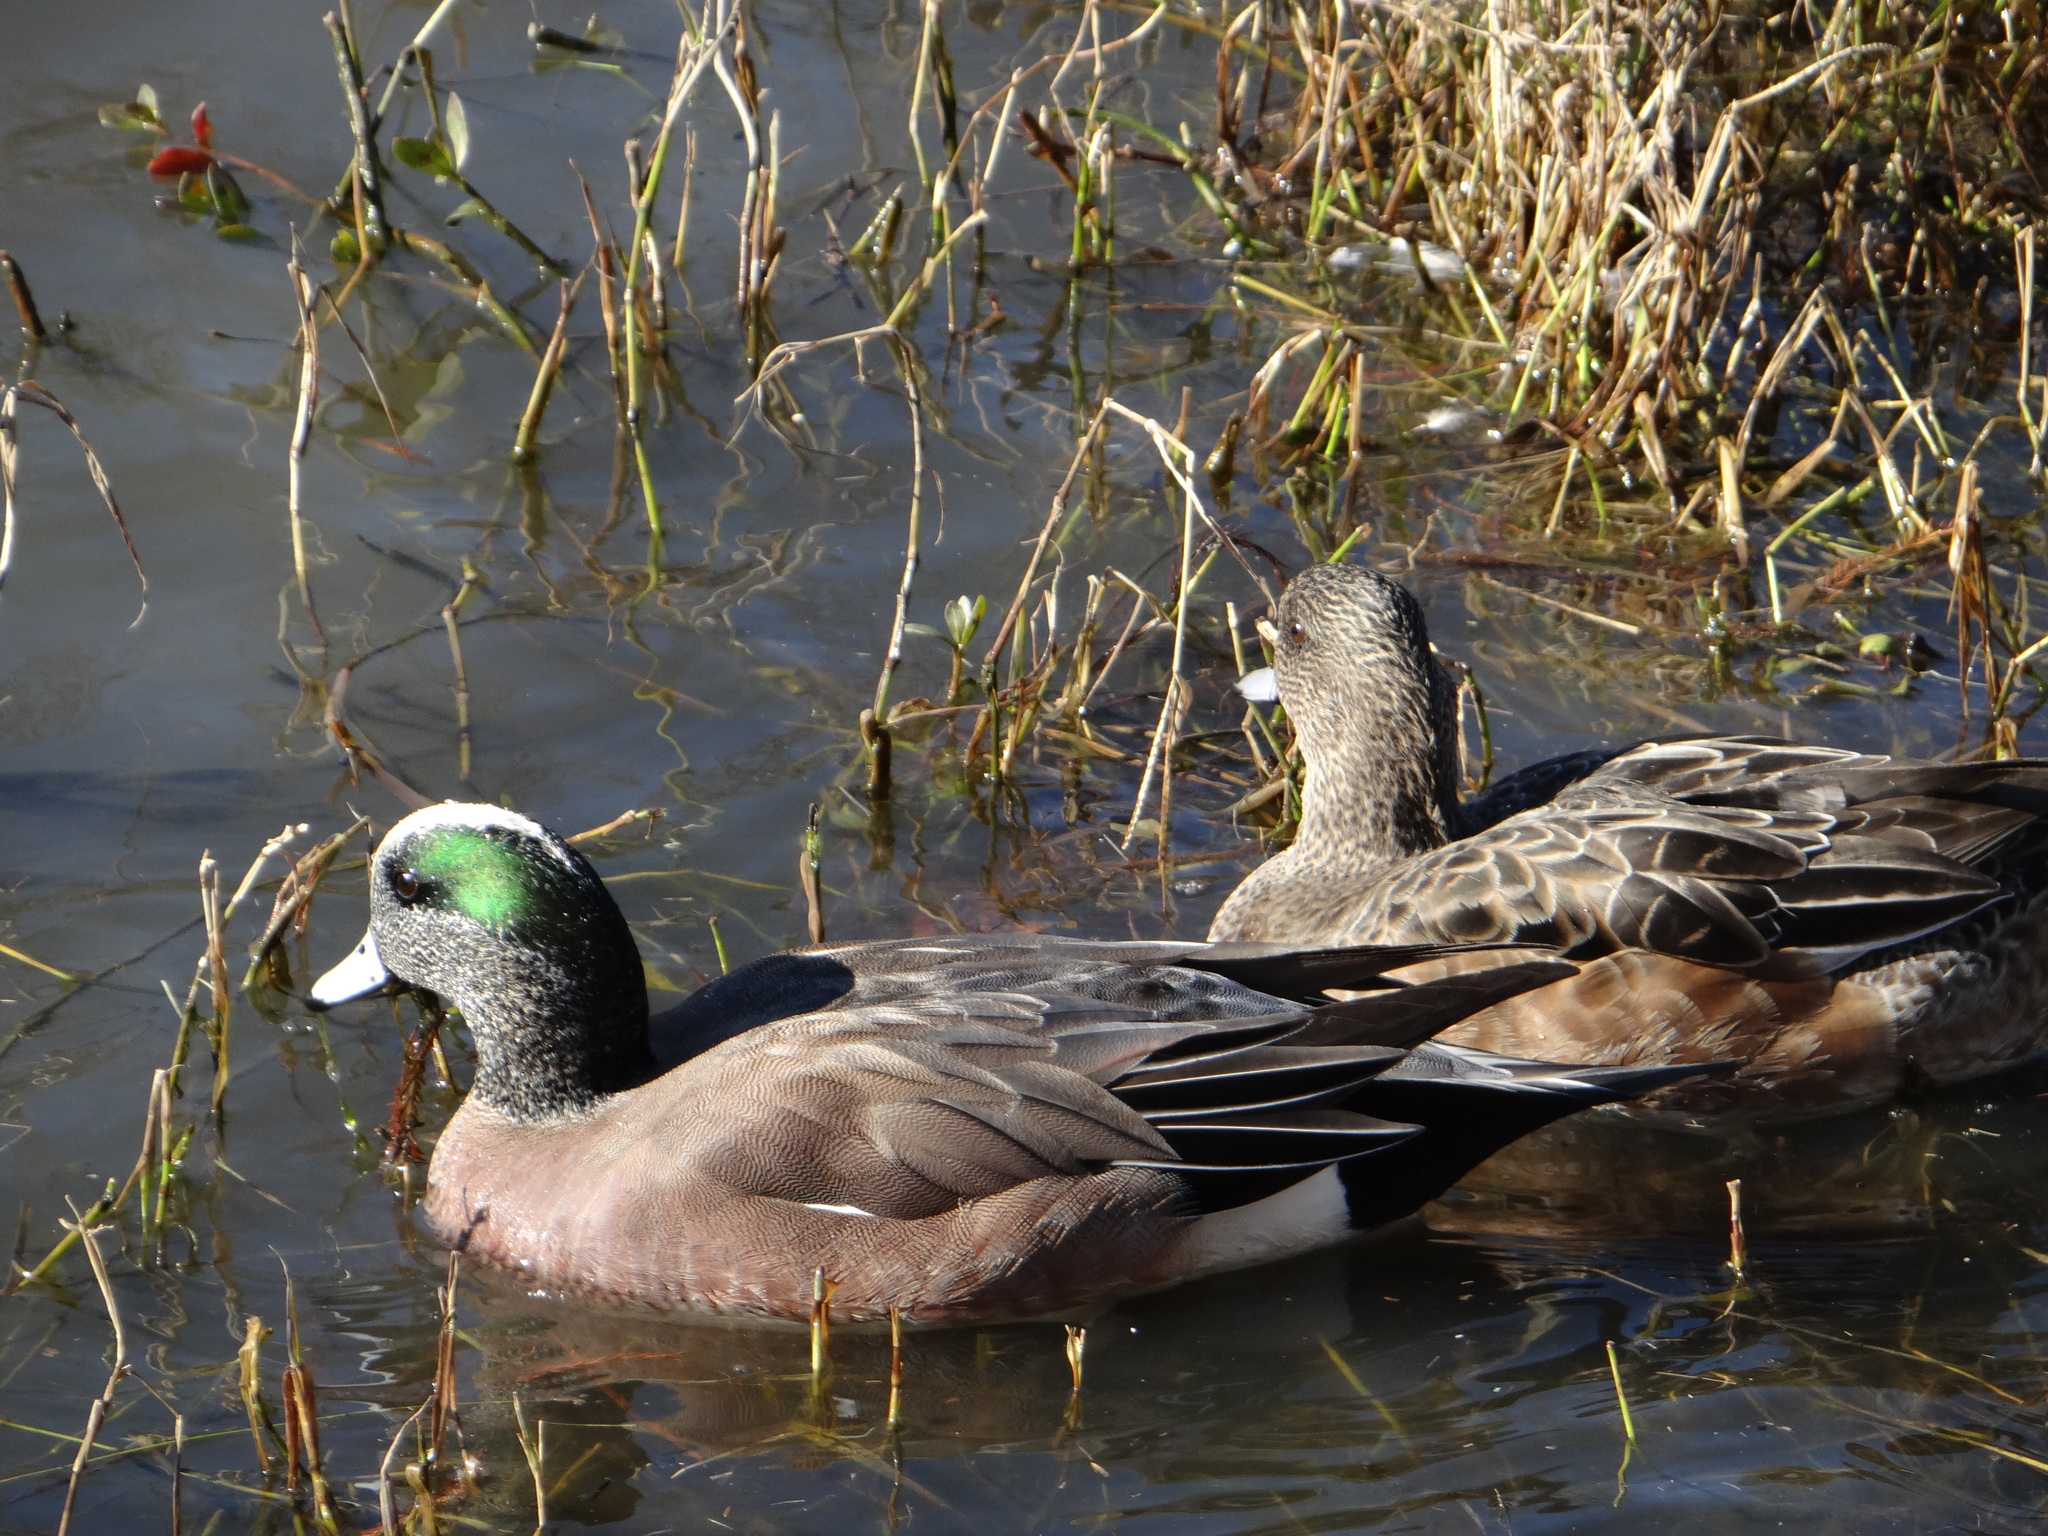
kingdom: Animalia
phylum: Chordata
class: Aves
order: Anseriformes
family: Anatidae
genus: Mareca
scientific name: Mareca americana
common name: American wigeon
